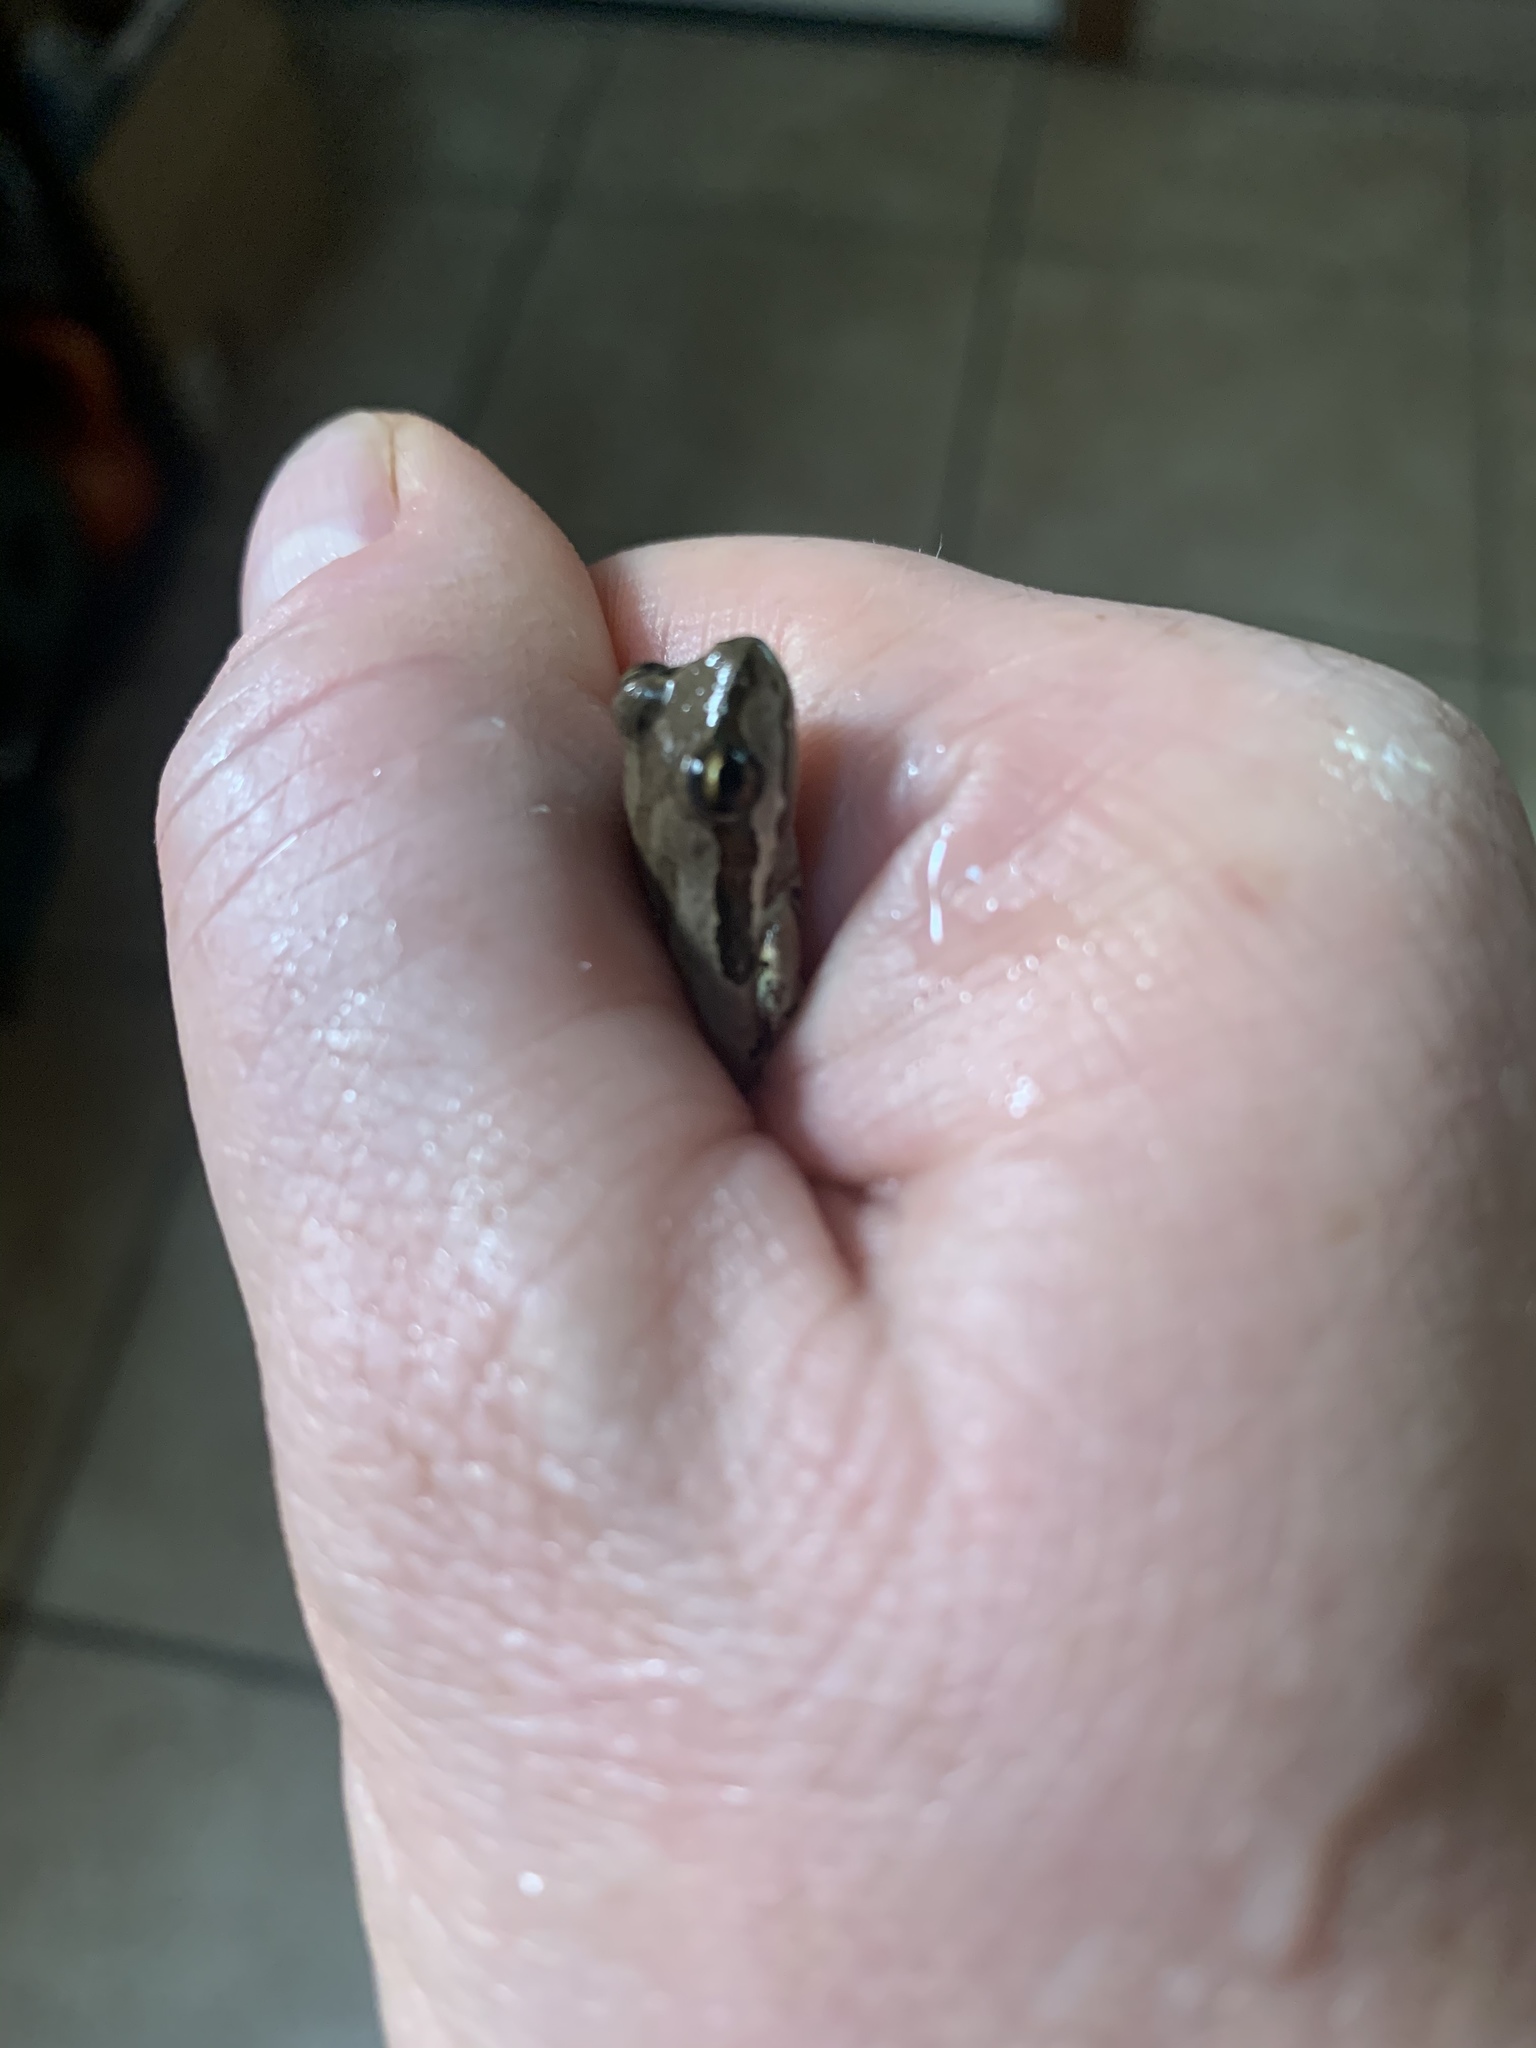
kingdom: Animalia
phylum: Chordata
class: Amphibia
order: Anura
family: Hylidae
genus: Pseudacris
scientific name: Pseudacris regilla
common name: Pacific chorus frog
